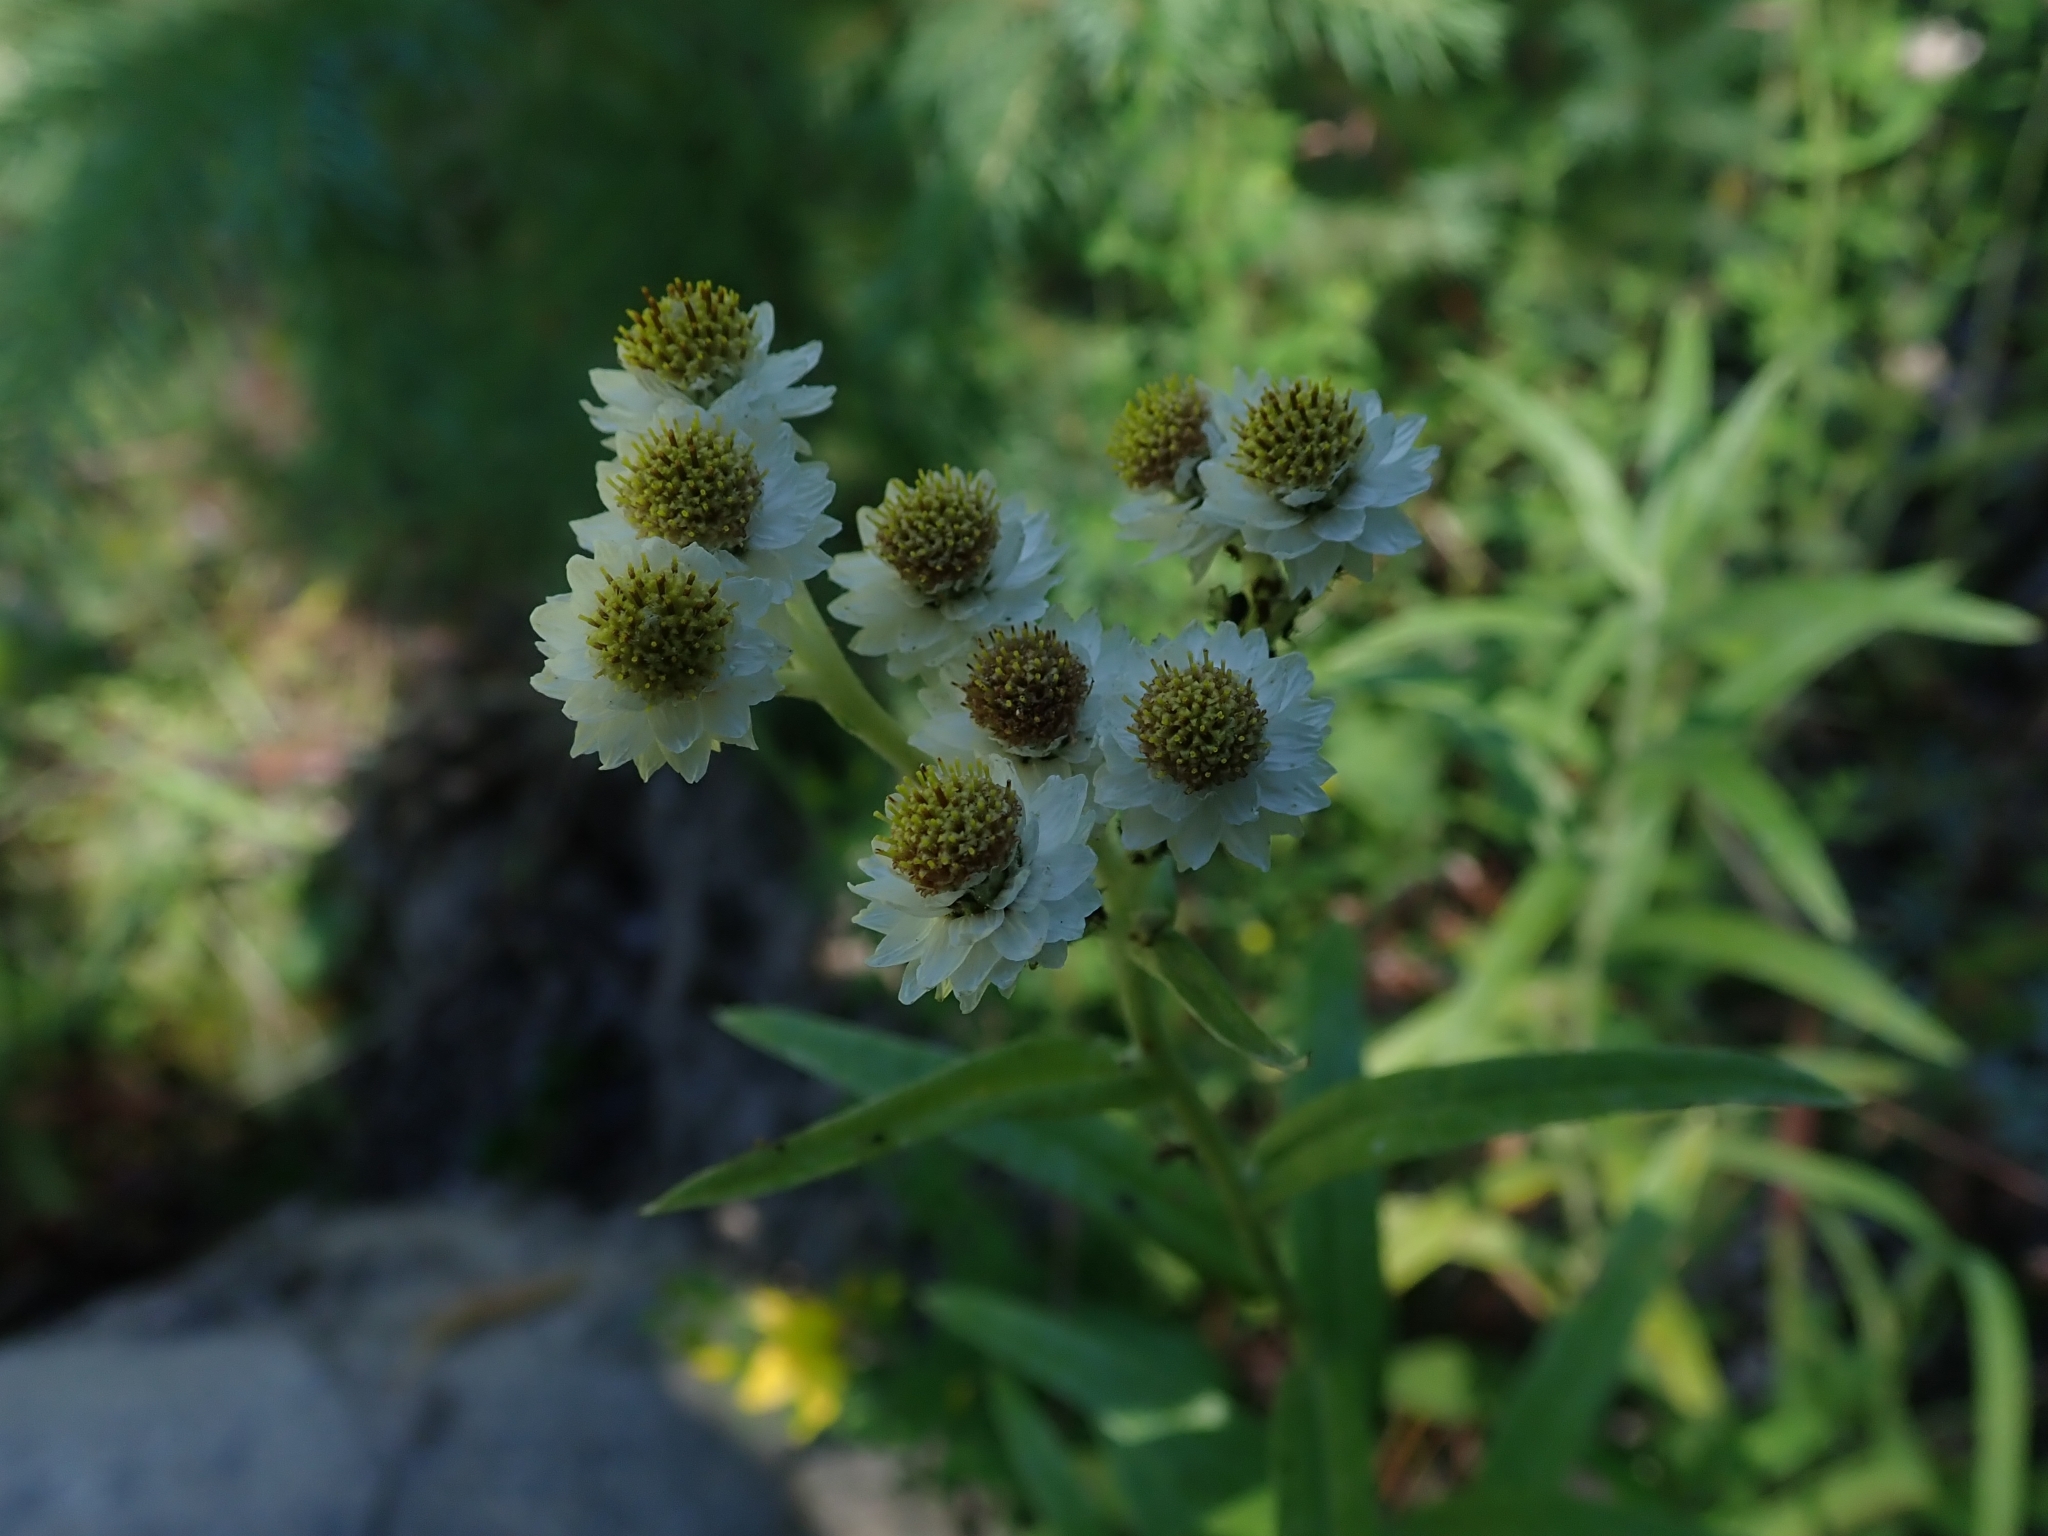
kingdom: Plantae
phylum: Tracheophyta
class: Magnoliopsida
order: Asterales
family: Asteraceae
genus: Anaphalis
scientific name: Anaphalis margaritacea
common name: Pearly everlasting
